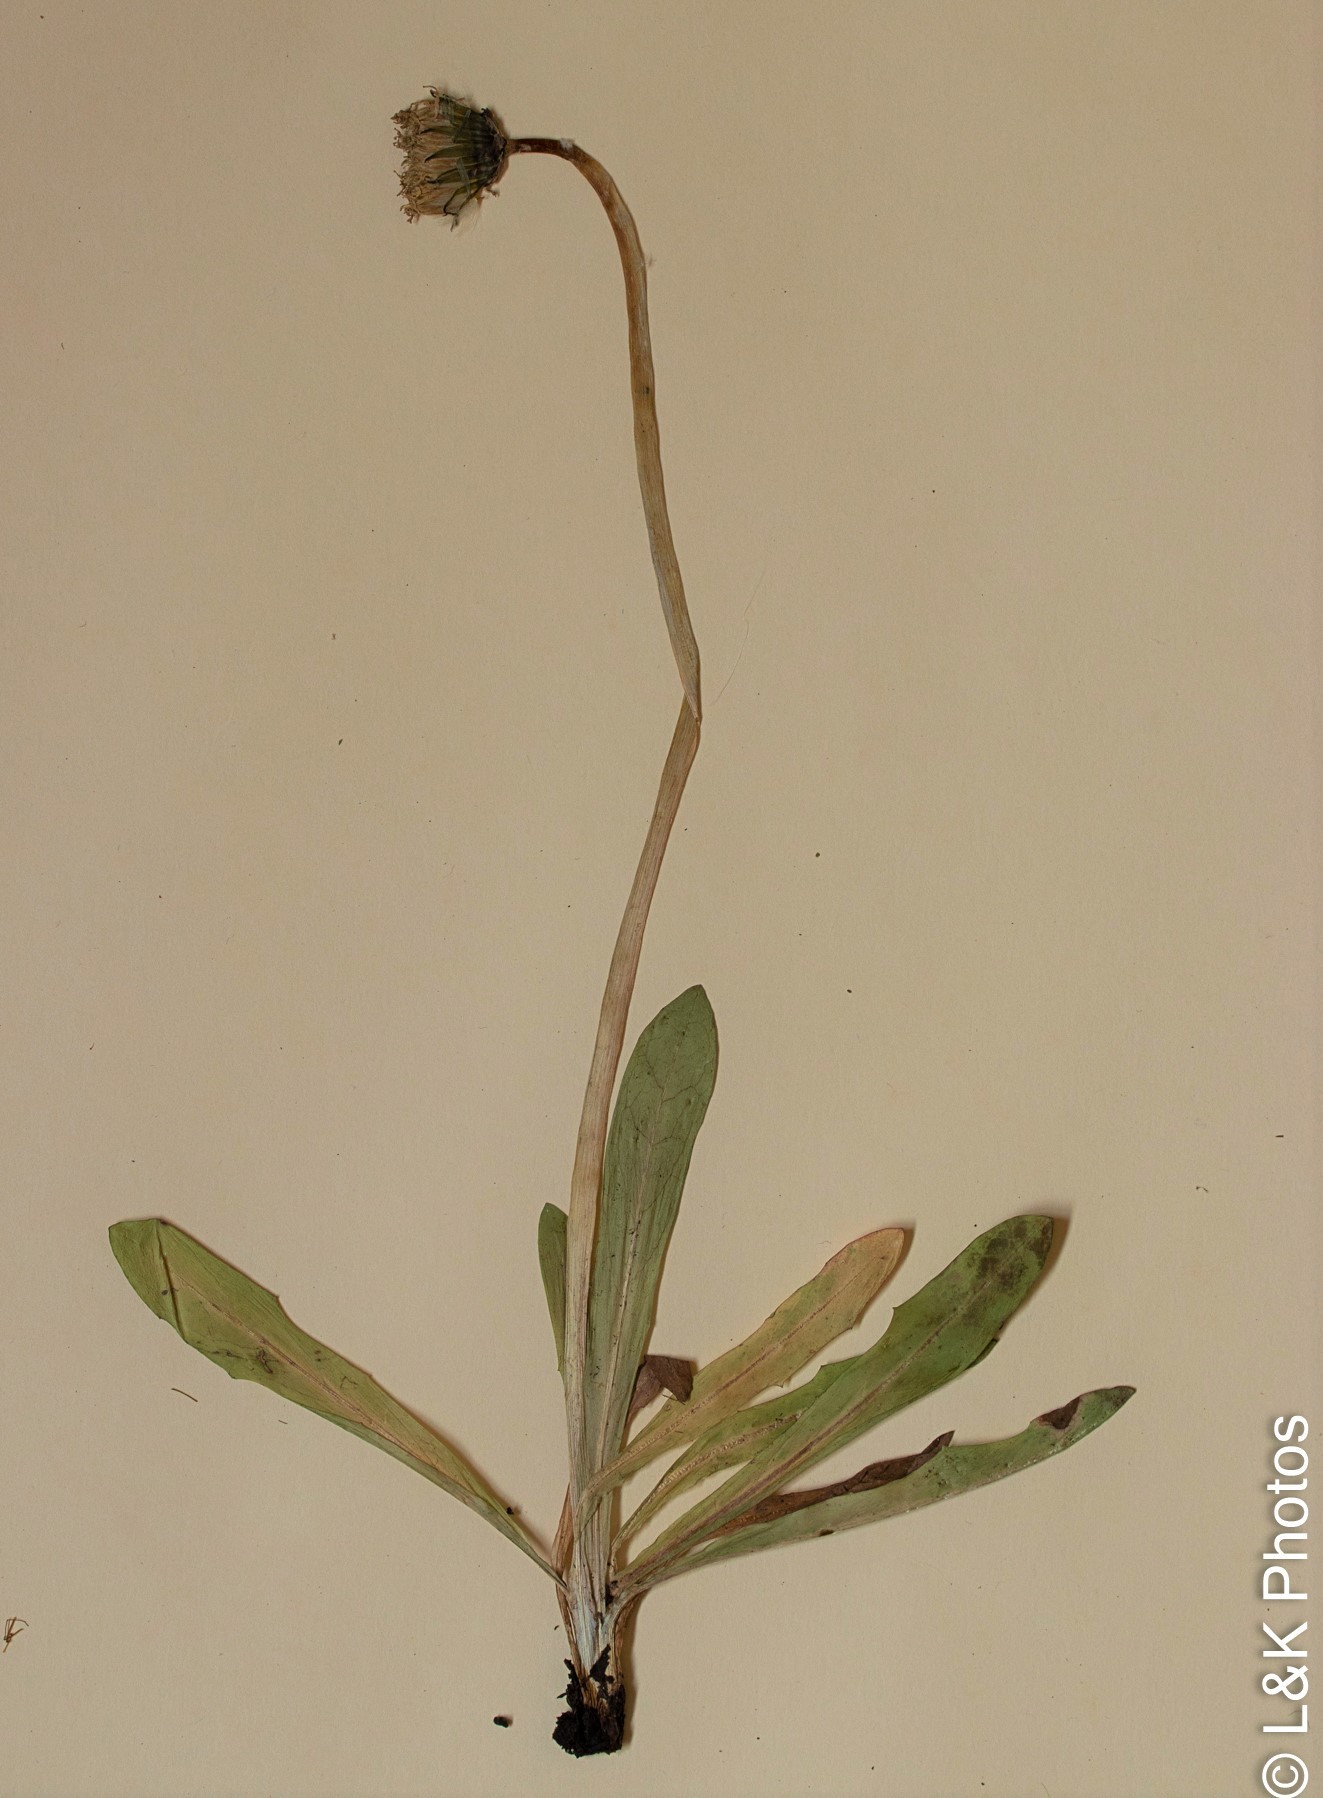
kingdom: Plantae
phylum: Tracheophyta
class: Magnoliopsida
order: Asterales
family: Asteraceae
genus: Taraxacum
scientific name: Taraxacum ceratophorum
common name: Horn-bearing dandelion
